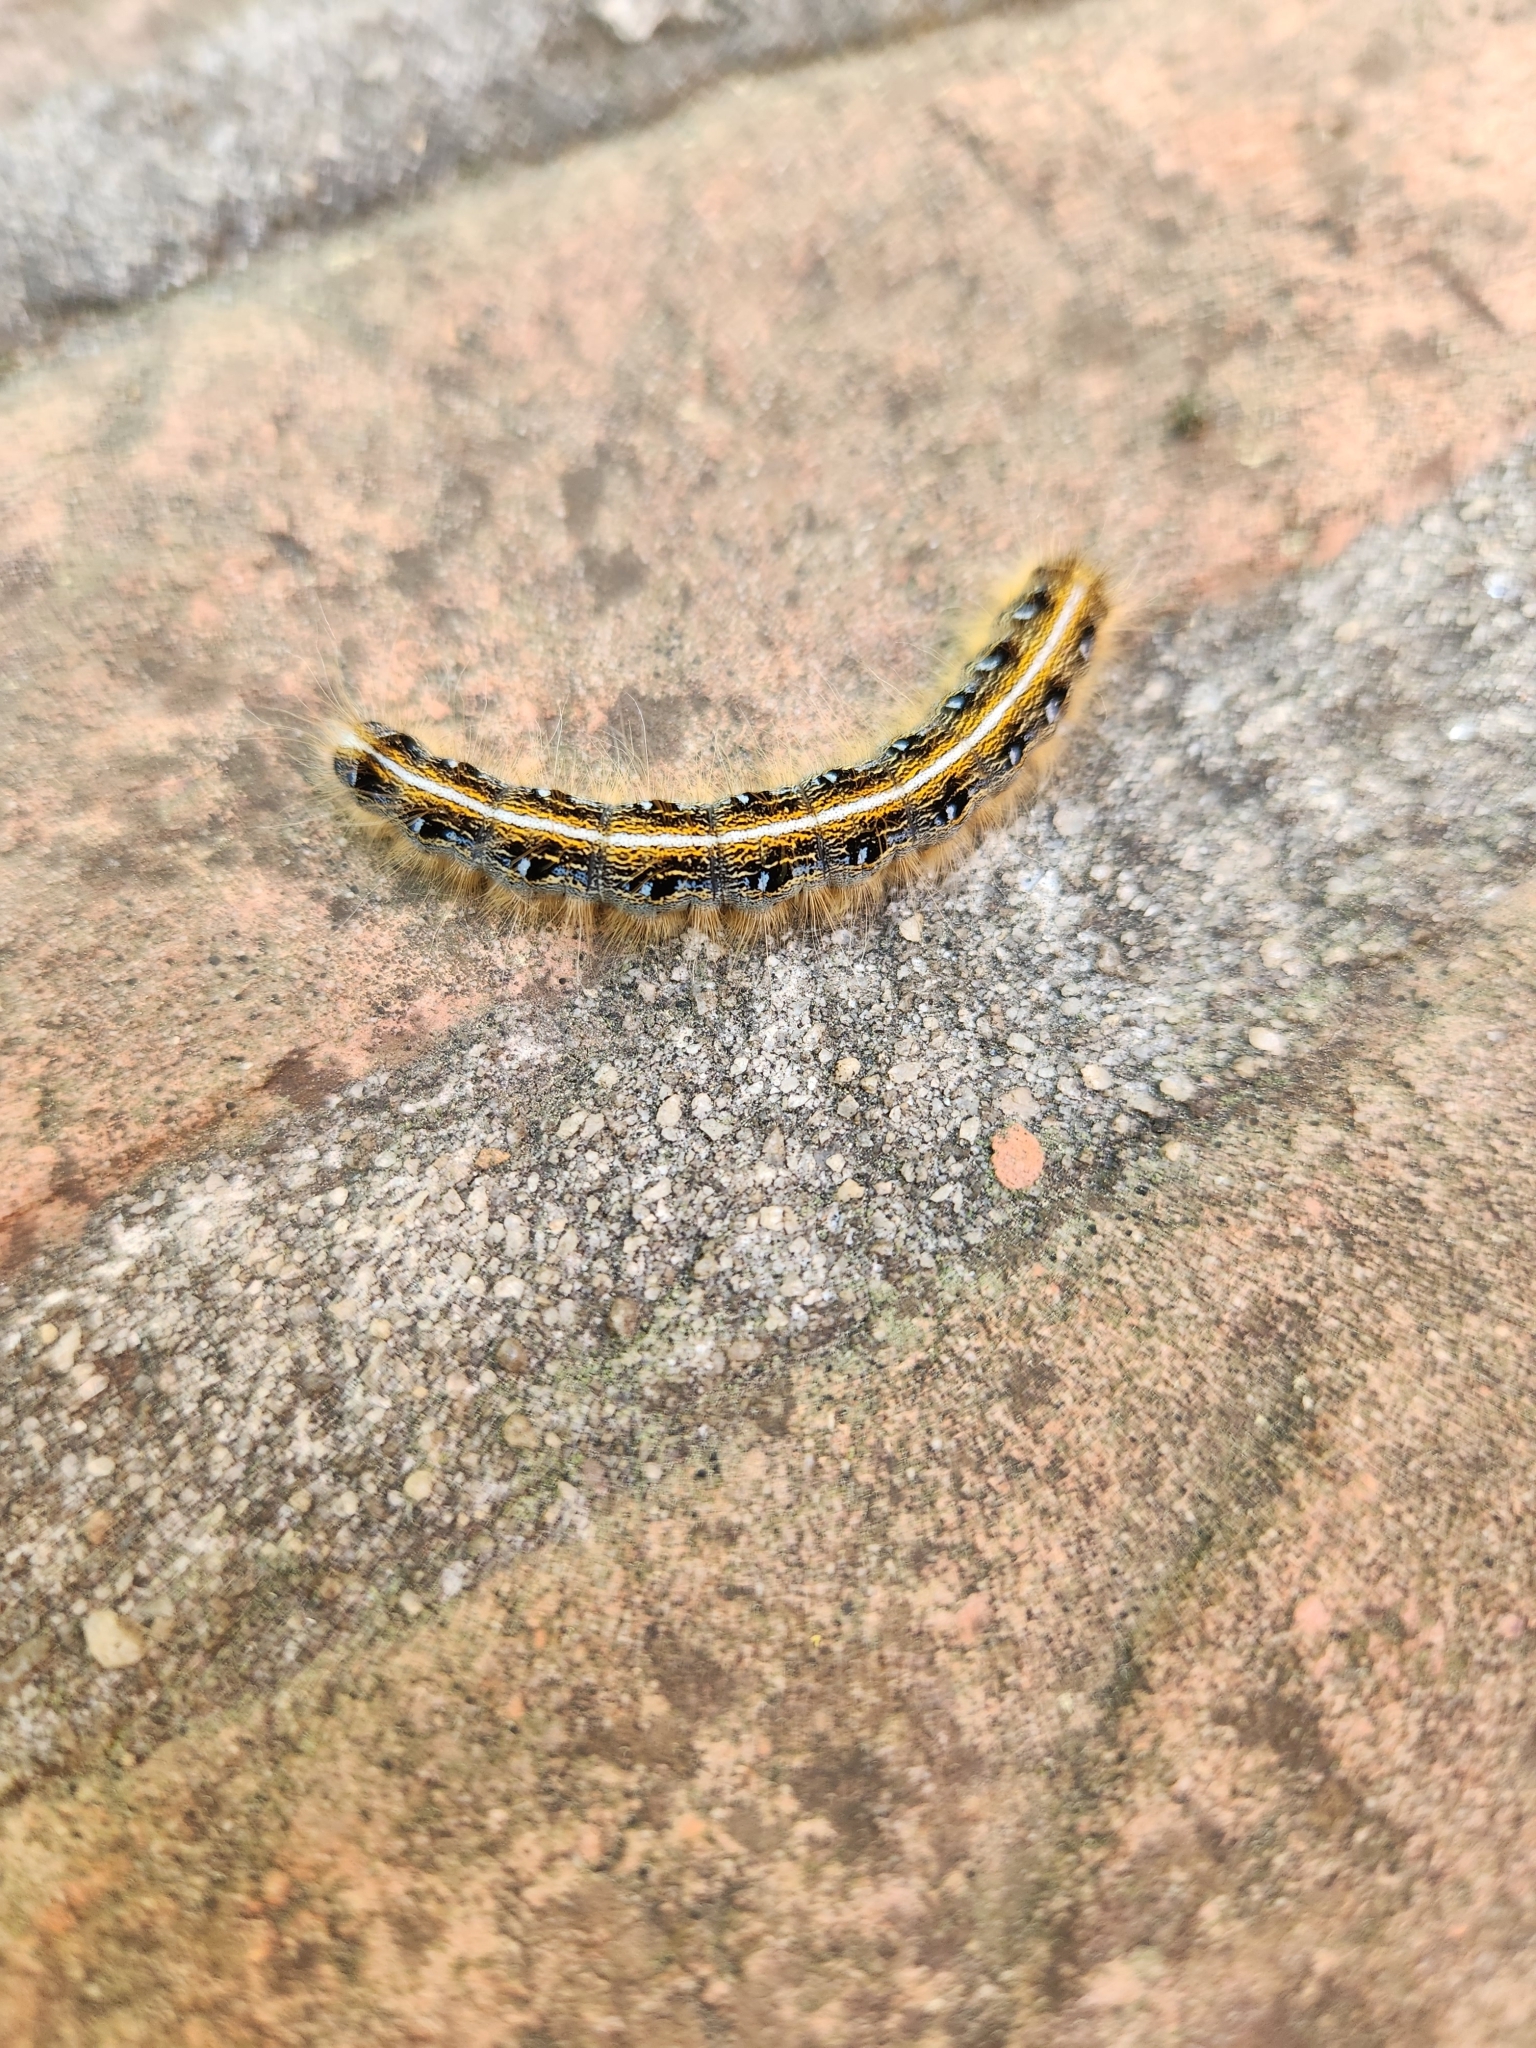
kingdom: Animalia
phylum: Arthropoda
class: Insecta
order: Lepidoptera
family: Lasiocampidae
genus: Malacosoma
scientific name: Malacosoma americana
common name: Eastern tent caterpillar moth
